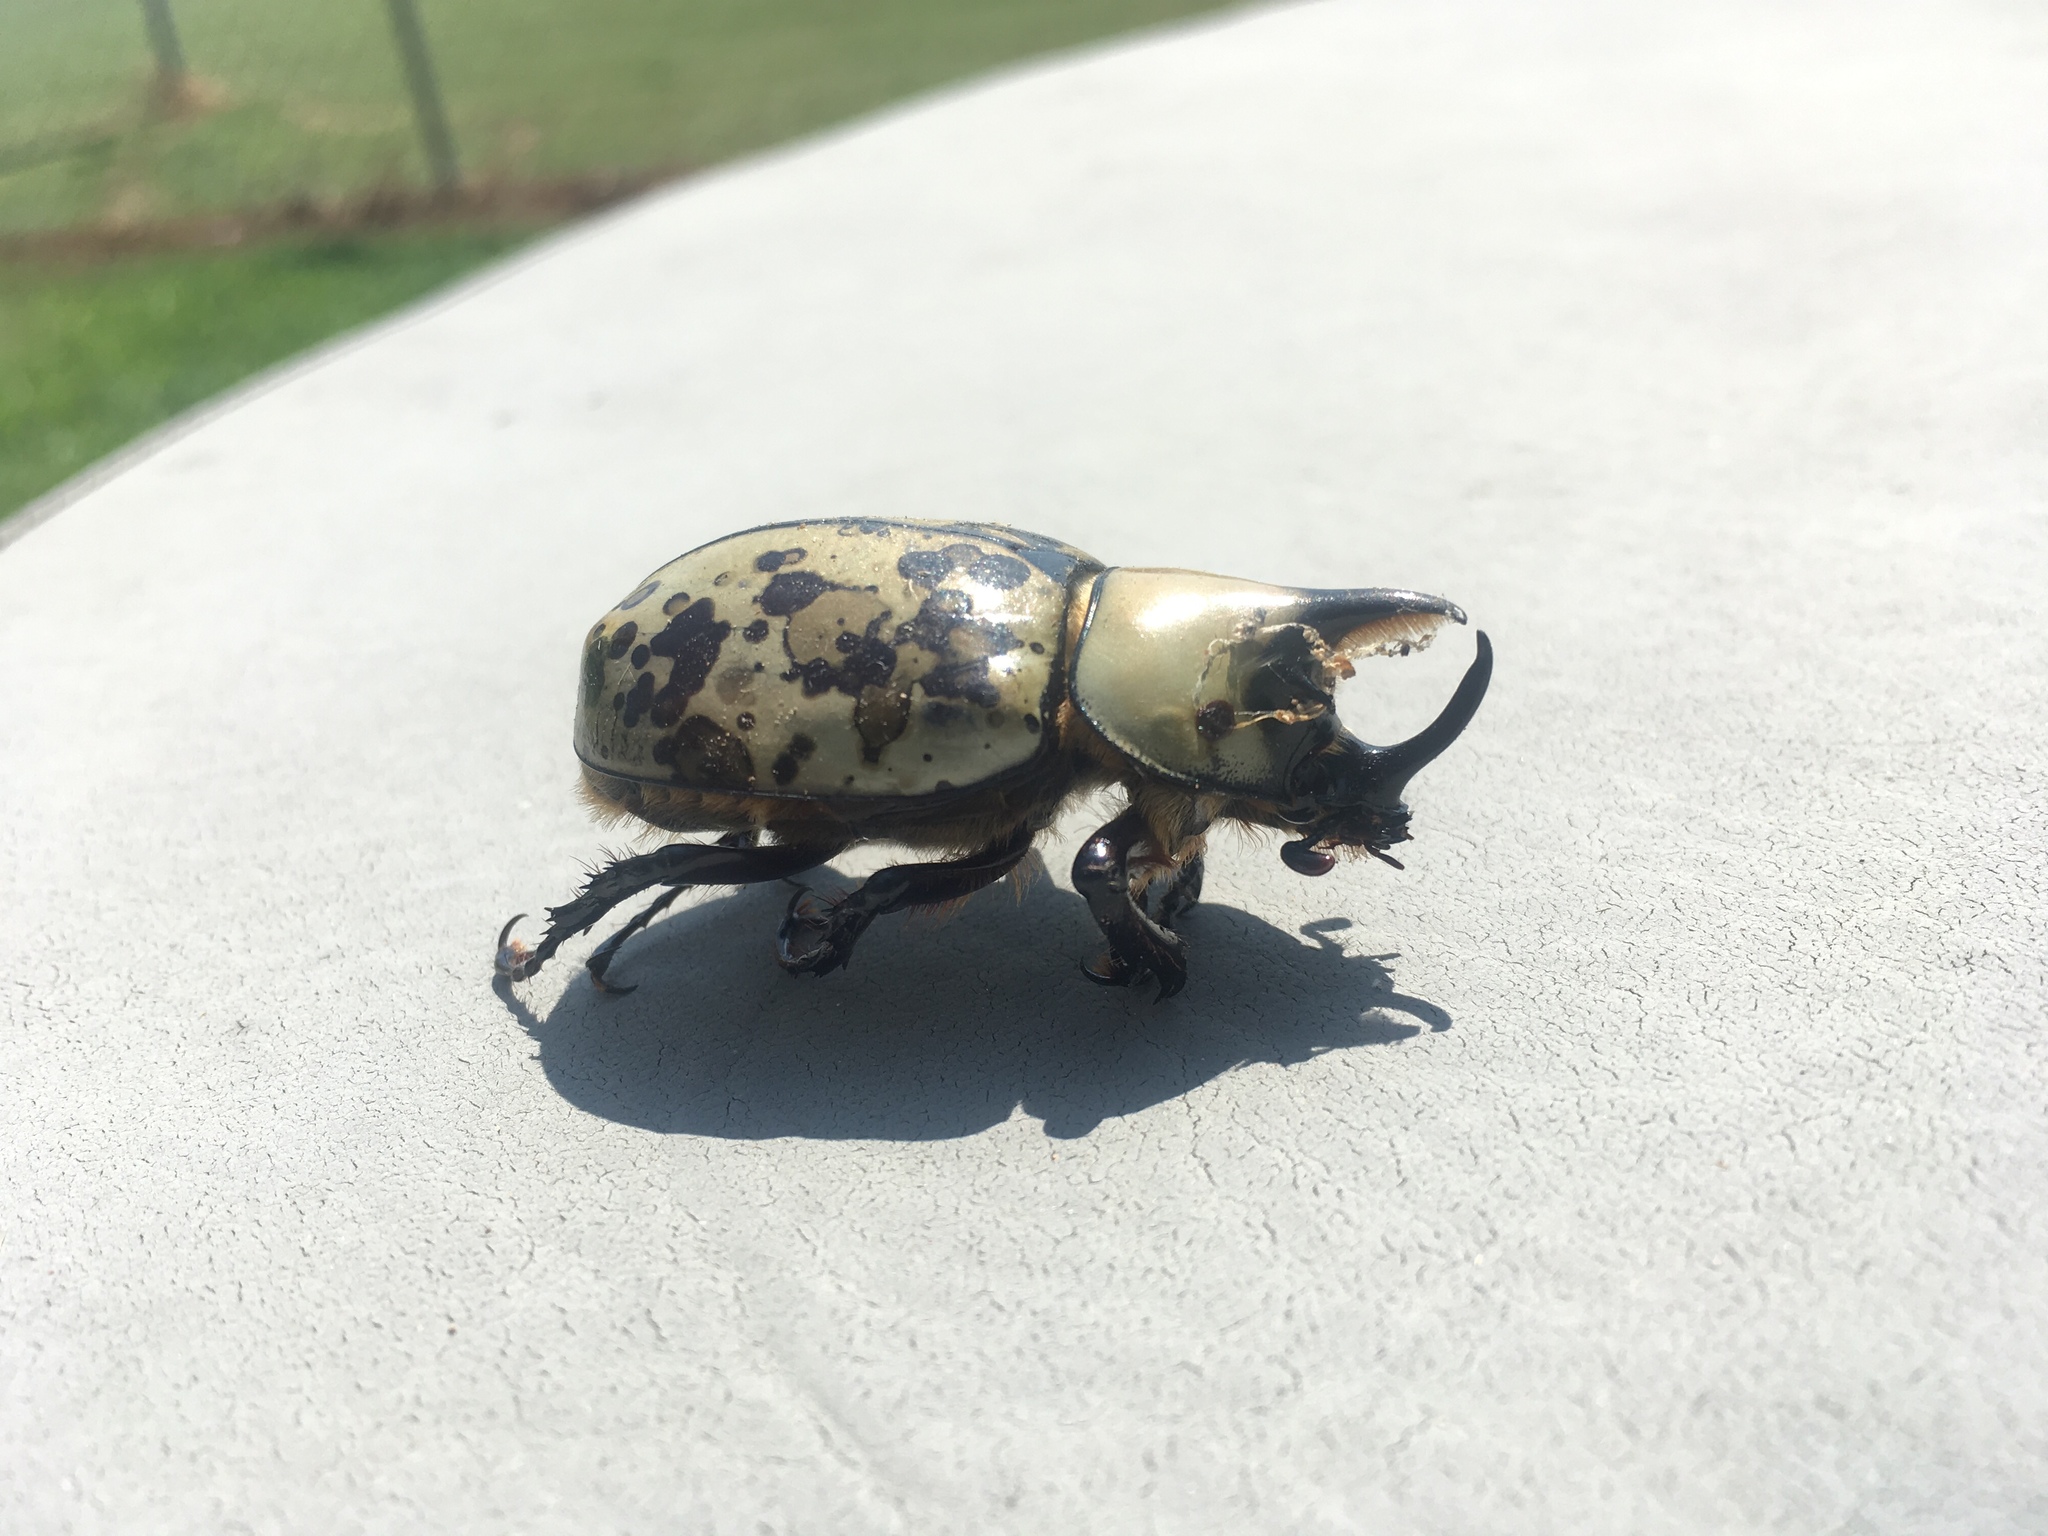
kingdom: Animalia
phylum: Arthropoda
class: Insecta
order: Coleoptera
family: Scarabaeidae
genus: Dynastes
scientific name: Dynastes tityus
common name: Eastern hercules beetle
